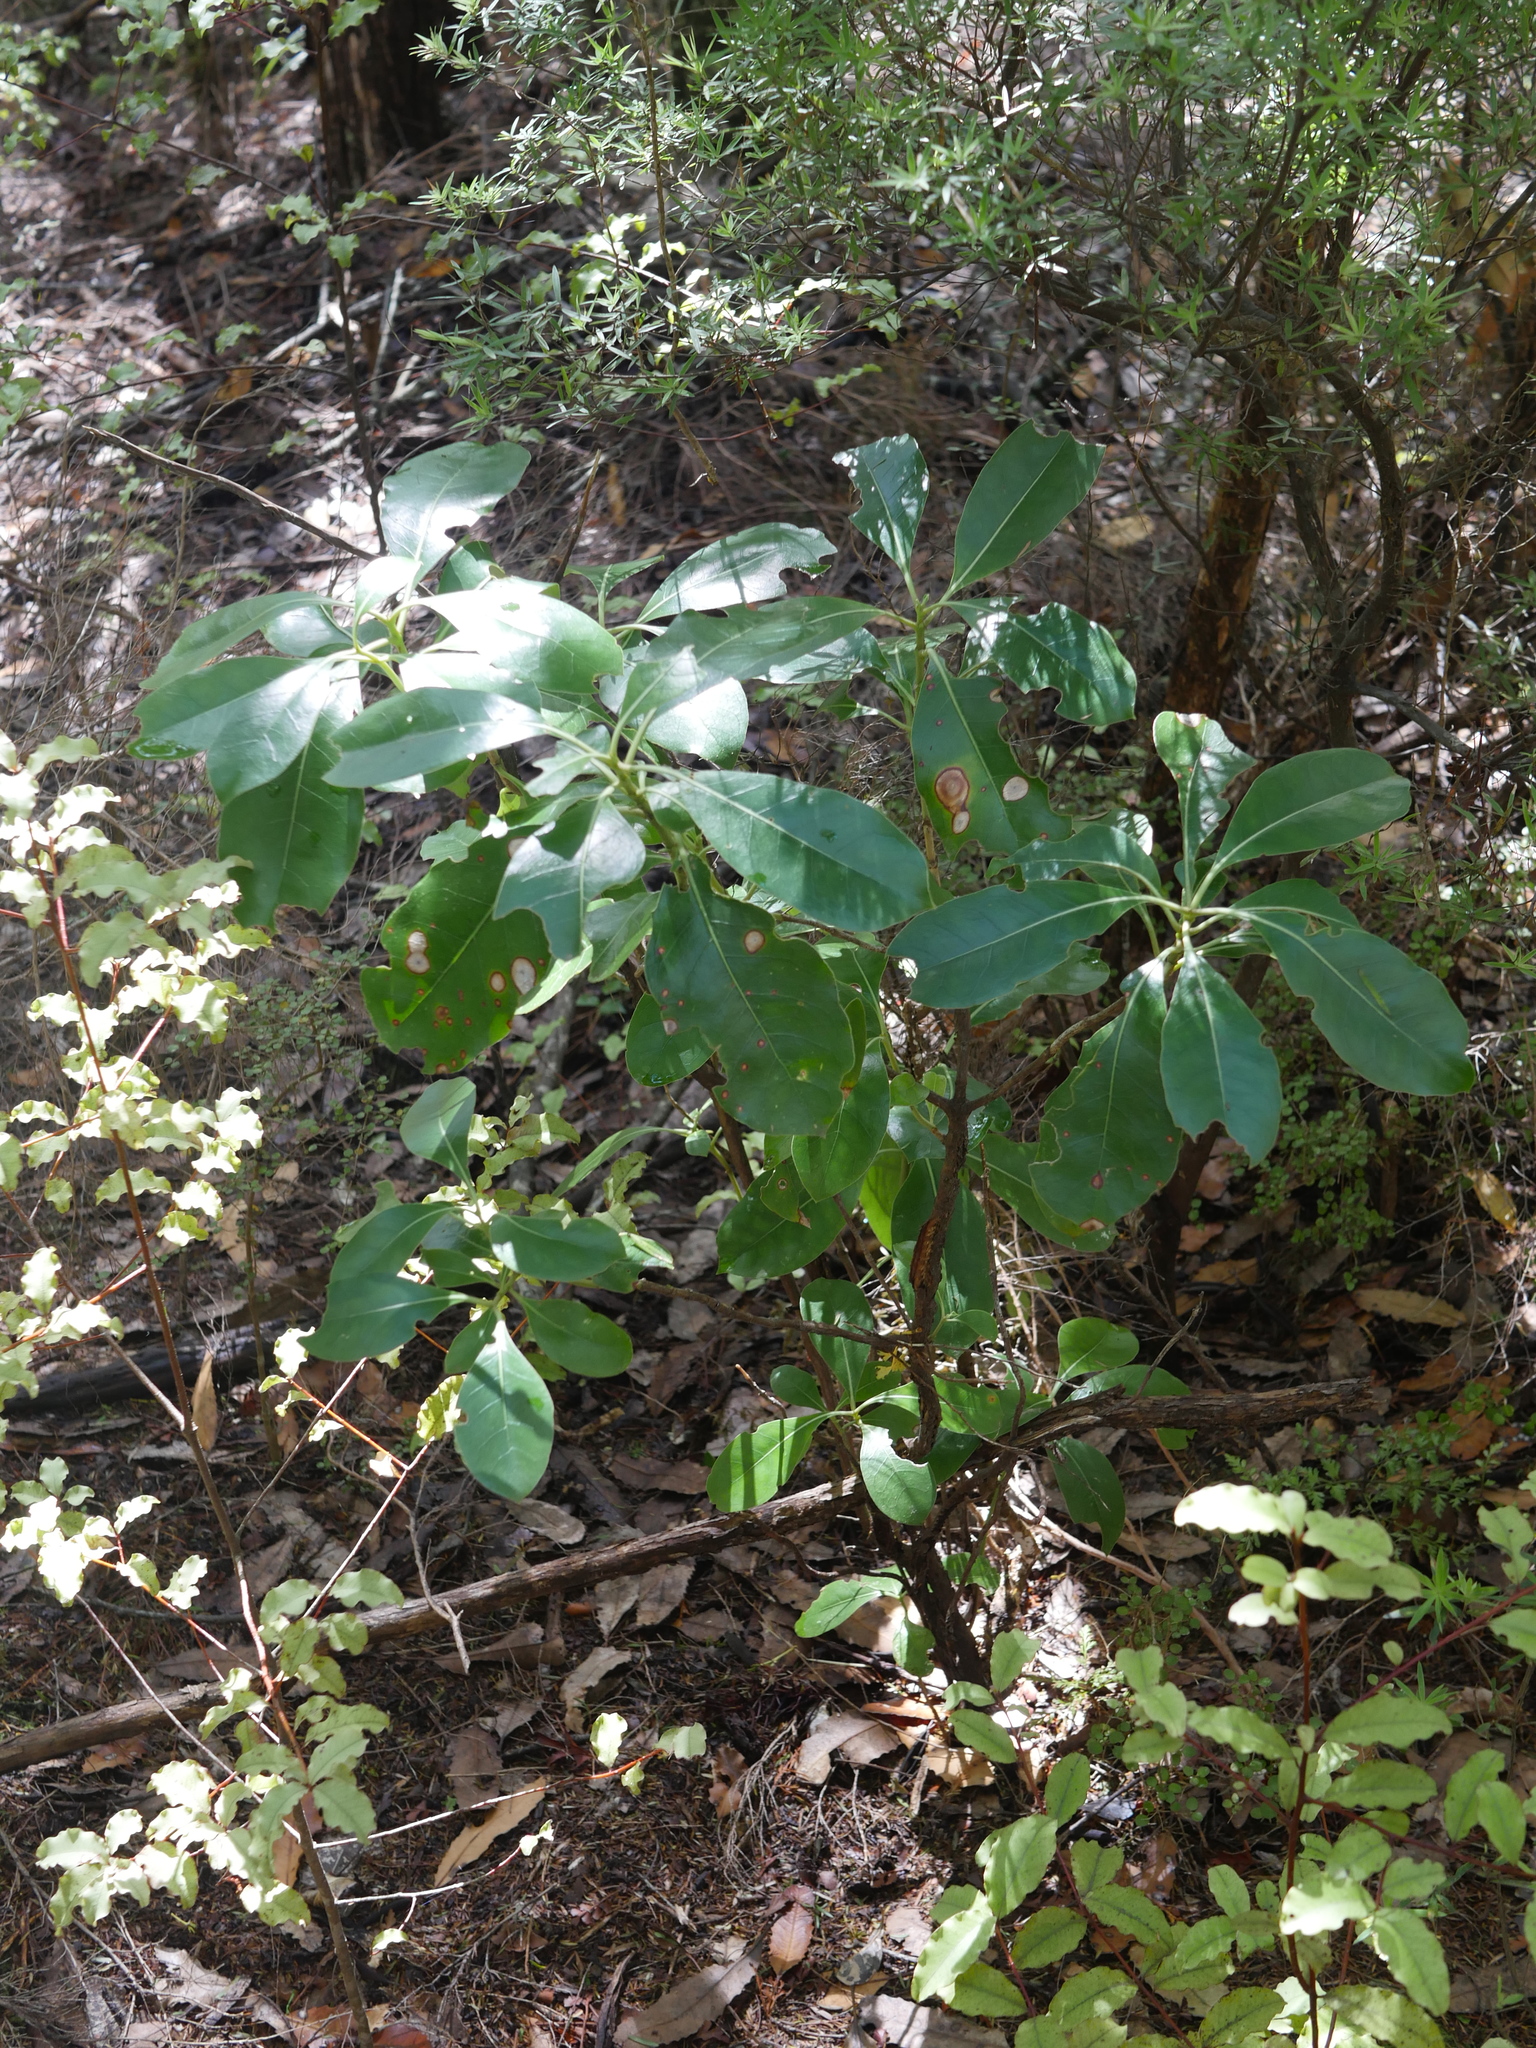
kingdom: Plantae
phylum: Tracheophyta
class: Magnoliopsida
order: Gentianales
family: Rubiaceae
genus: Coprosma
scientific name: Coprosma lucida
